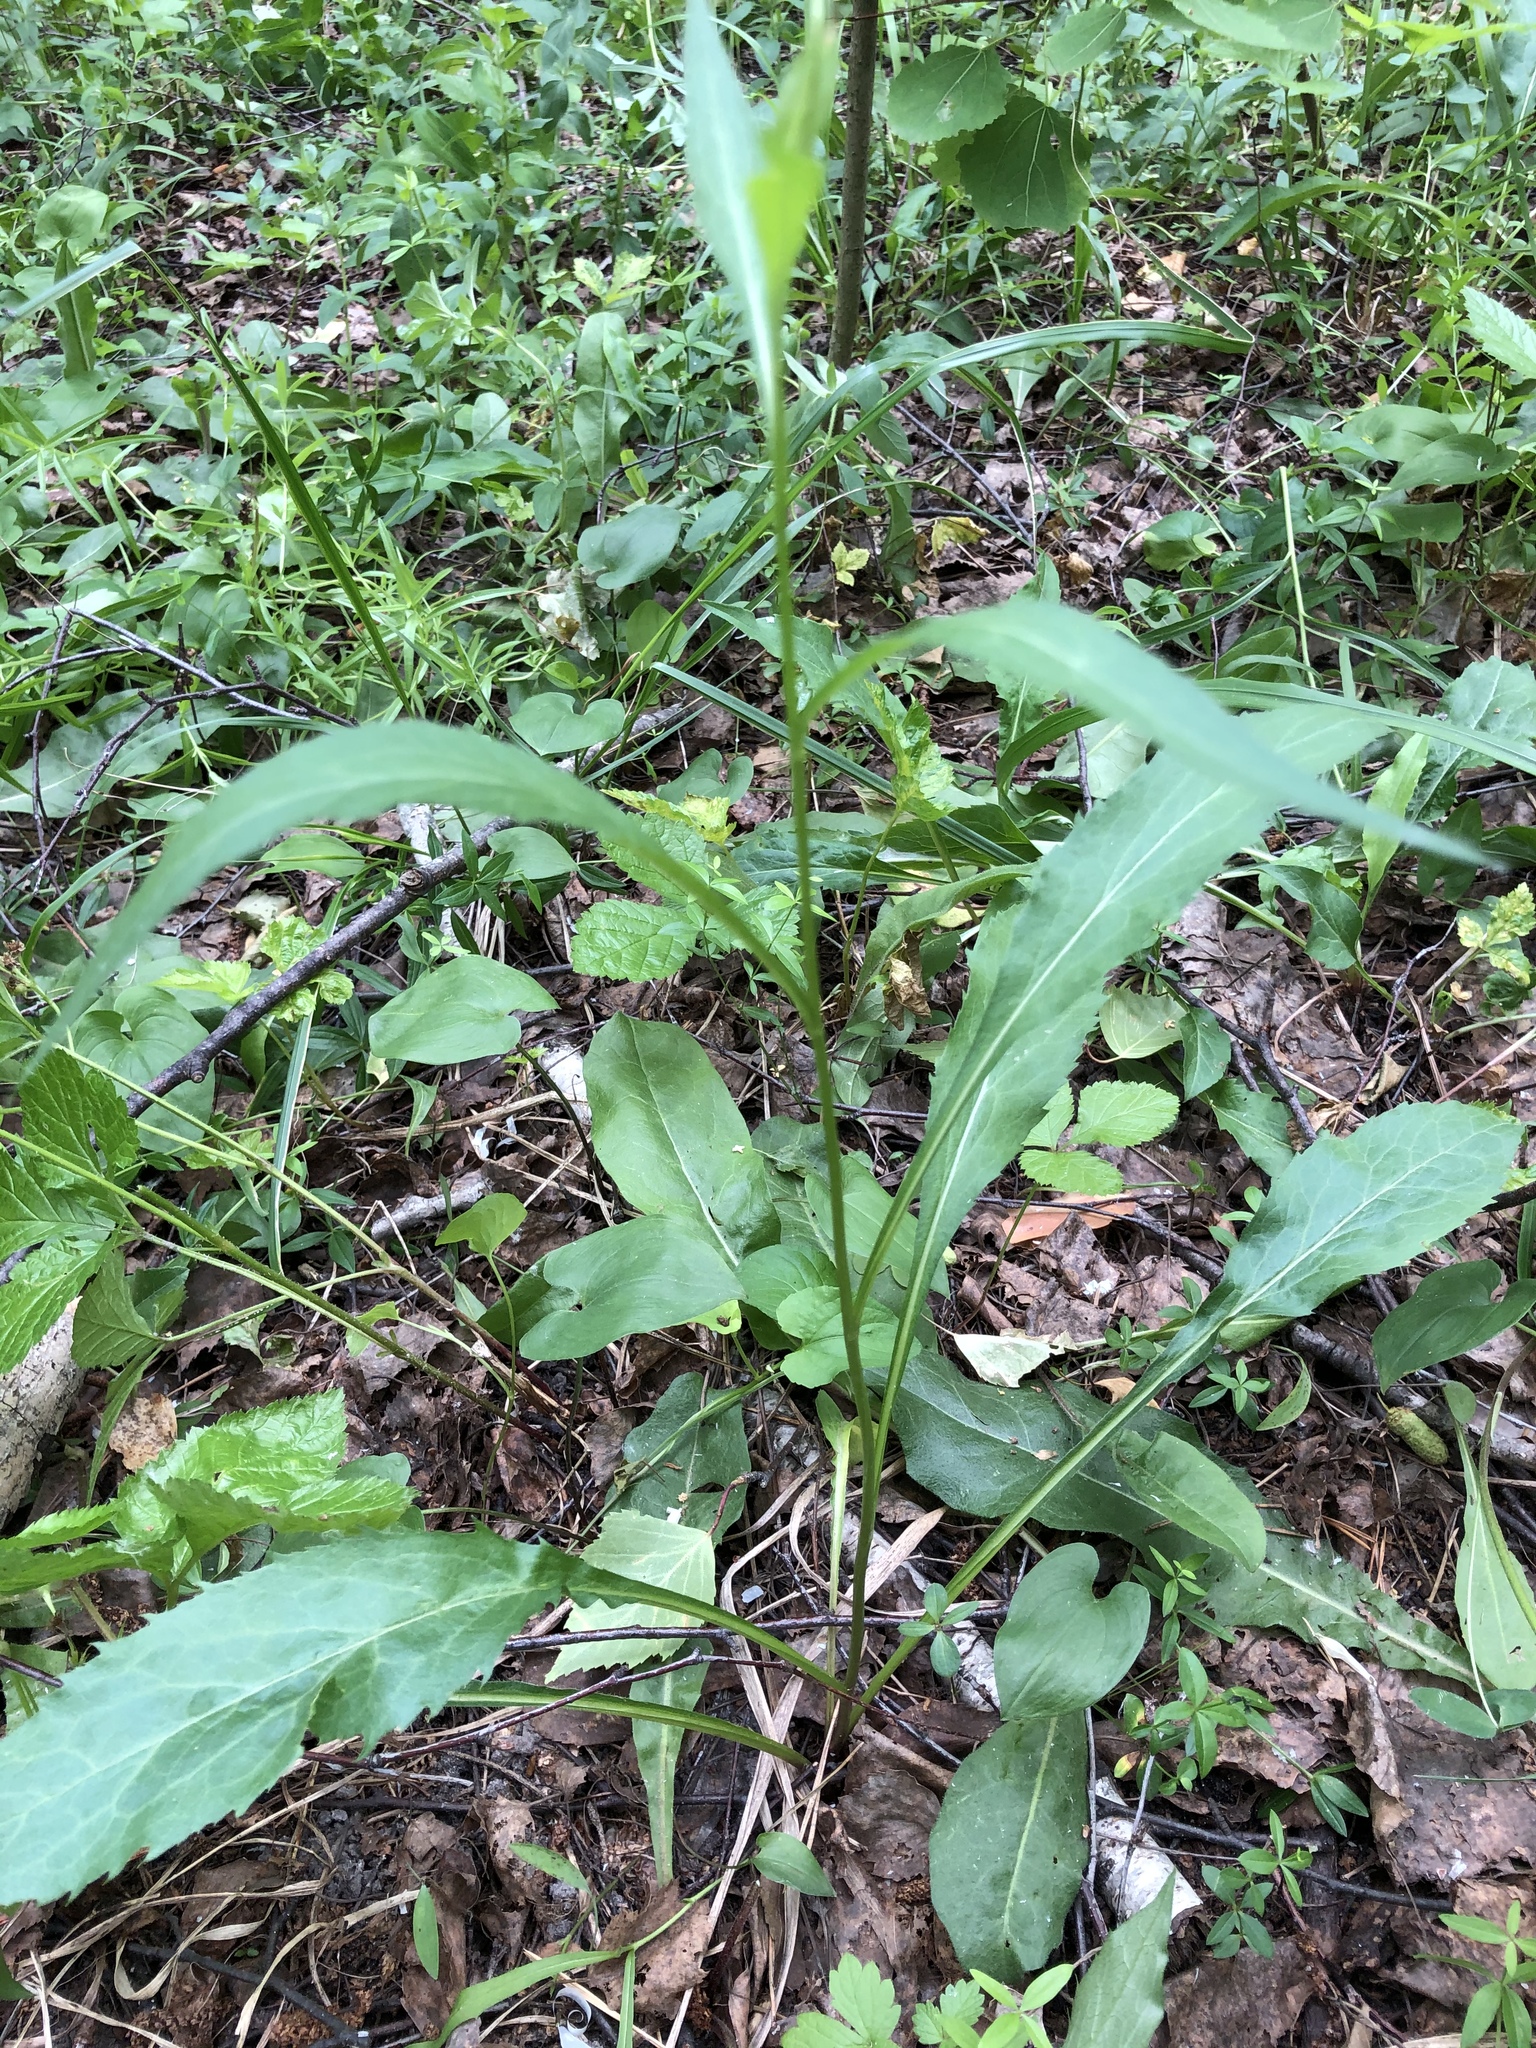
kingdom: Plantae
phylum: Tracheophyta
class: Magnoliopsida
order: Asterales
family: Asteraceae
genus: Solidago
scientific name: Solidago virgaurea
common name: Goldenrod
